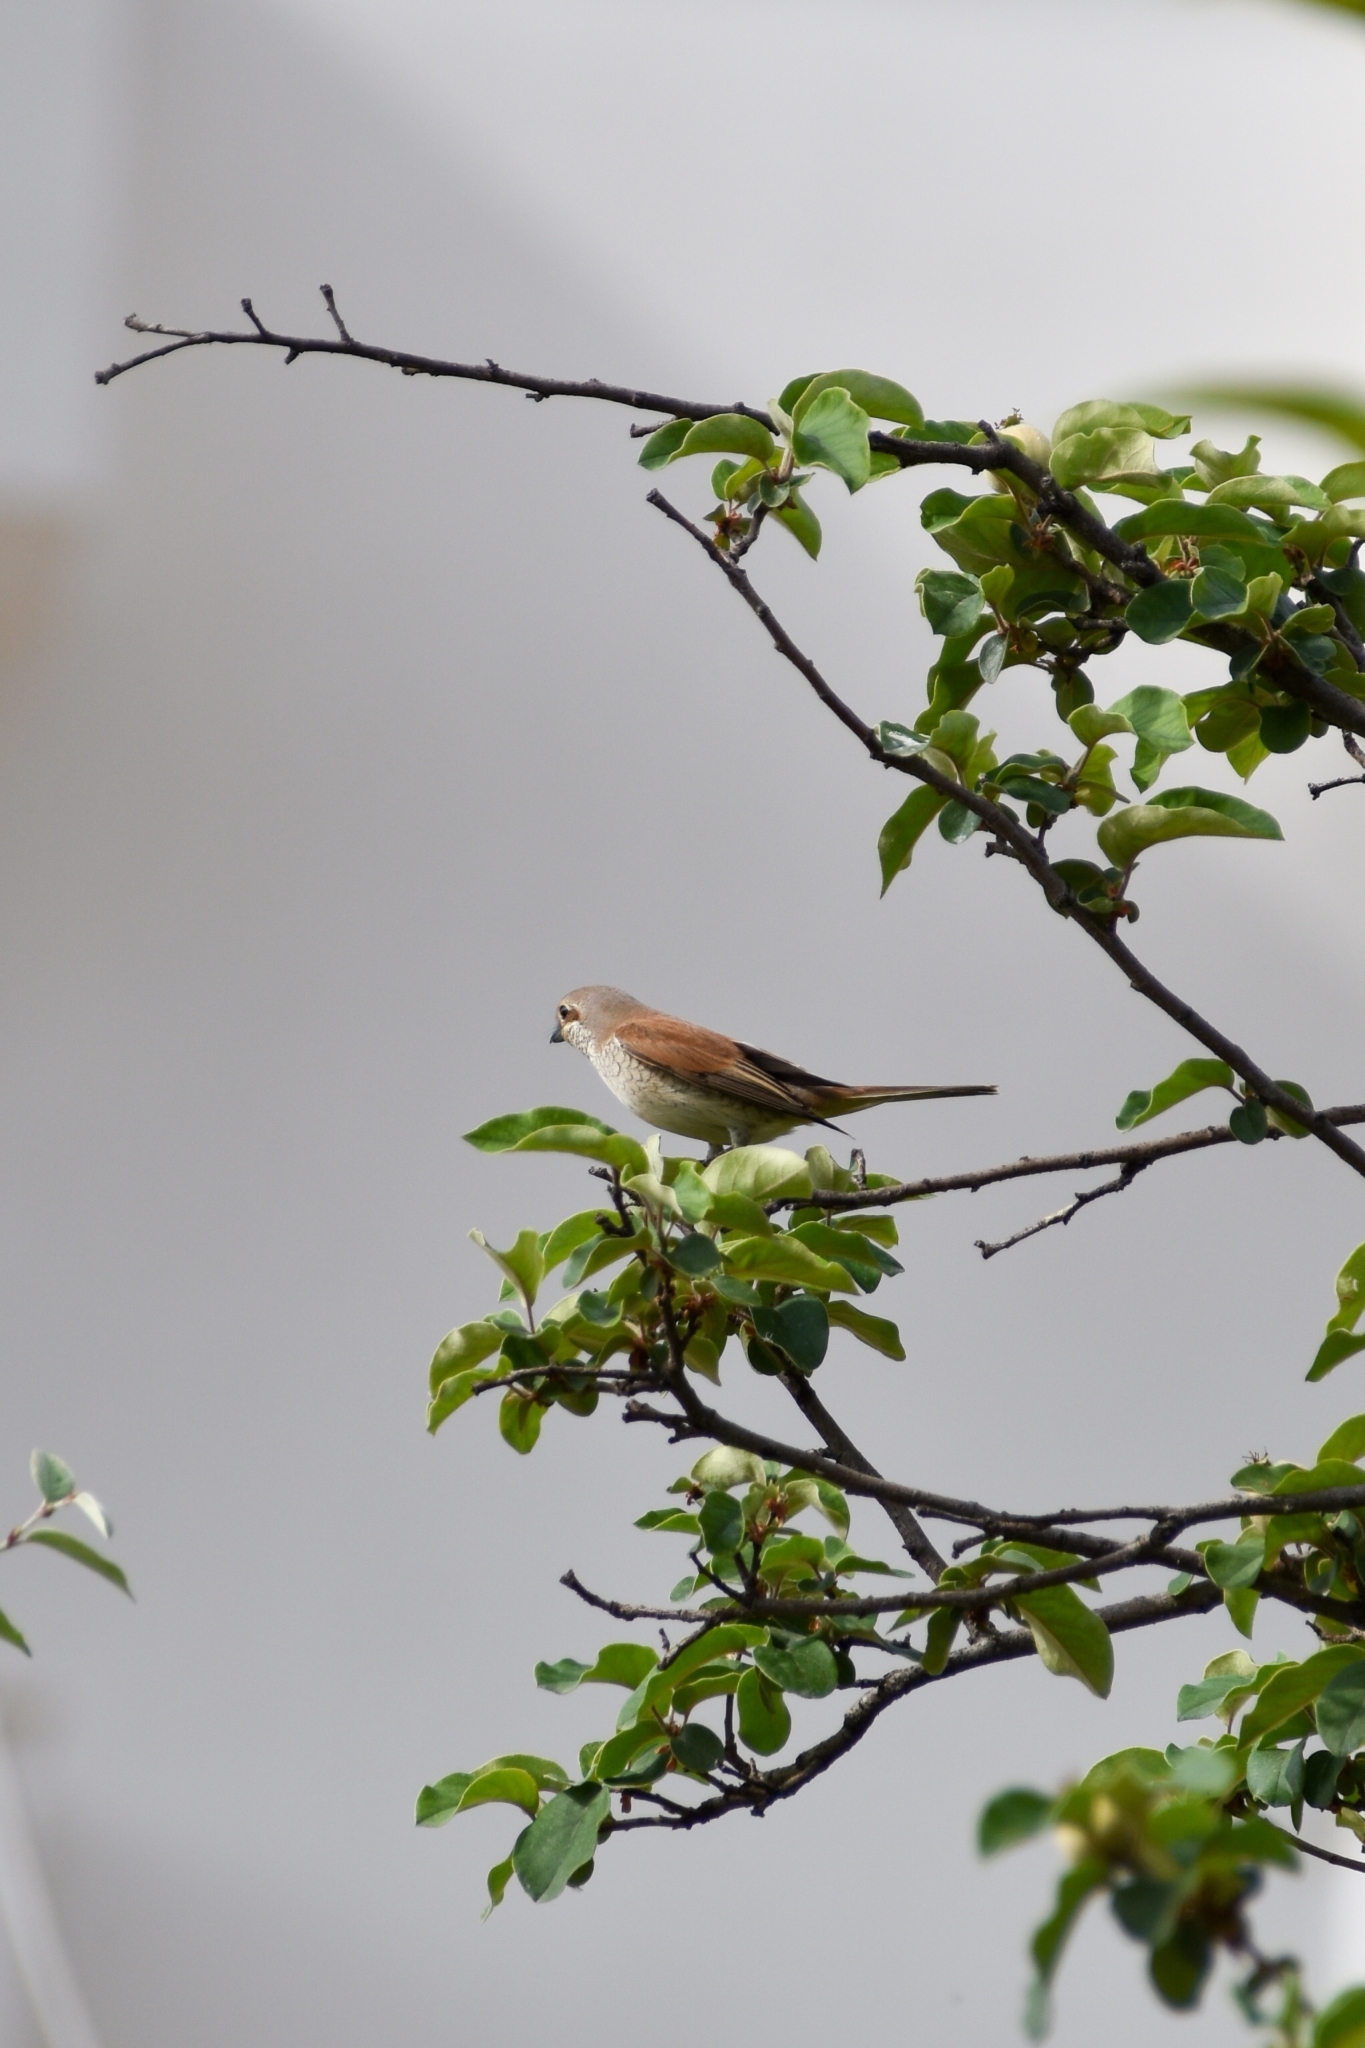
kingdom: Animalia
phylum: Chordata
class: Aves
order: Passeriformes
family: Laniidae
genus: Lanius
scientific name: Lanius collurio
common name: Red-backed shrike
